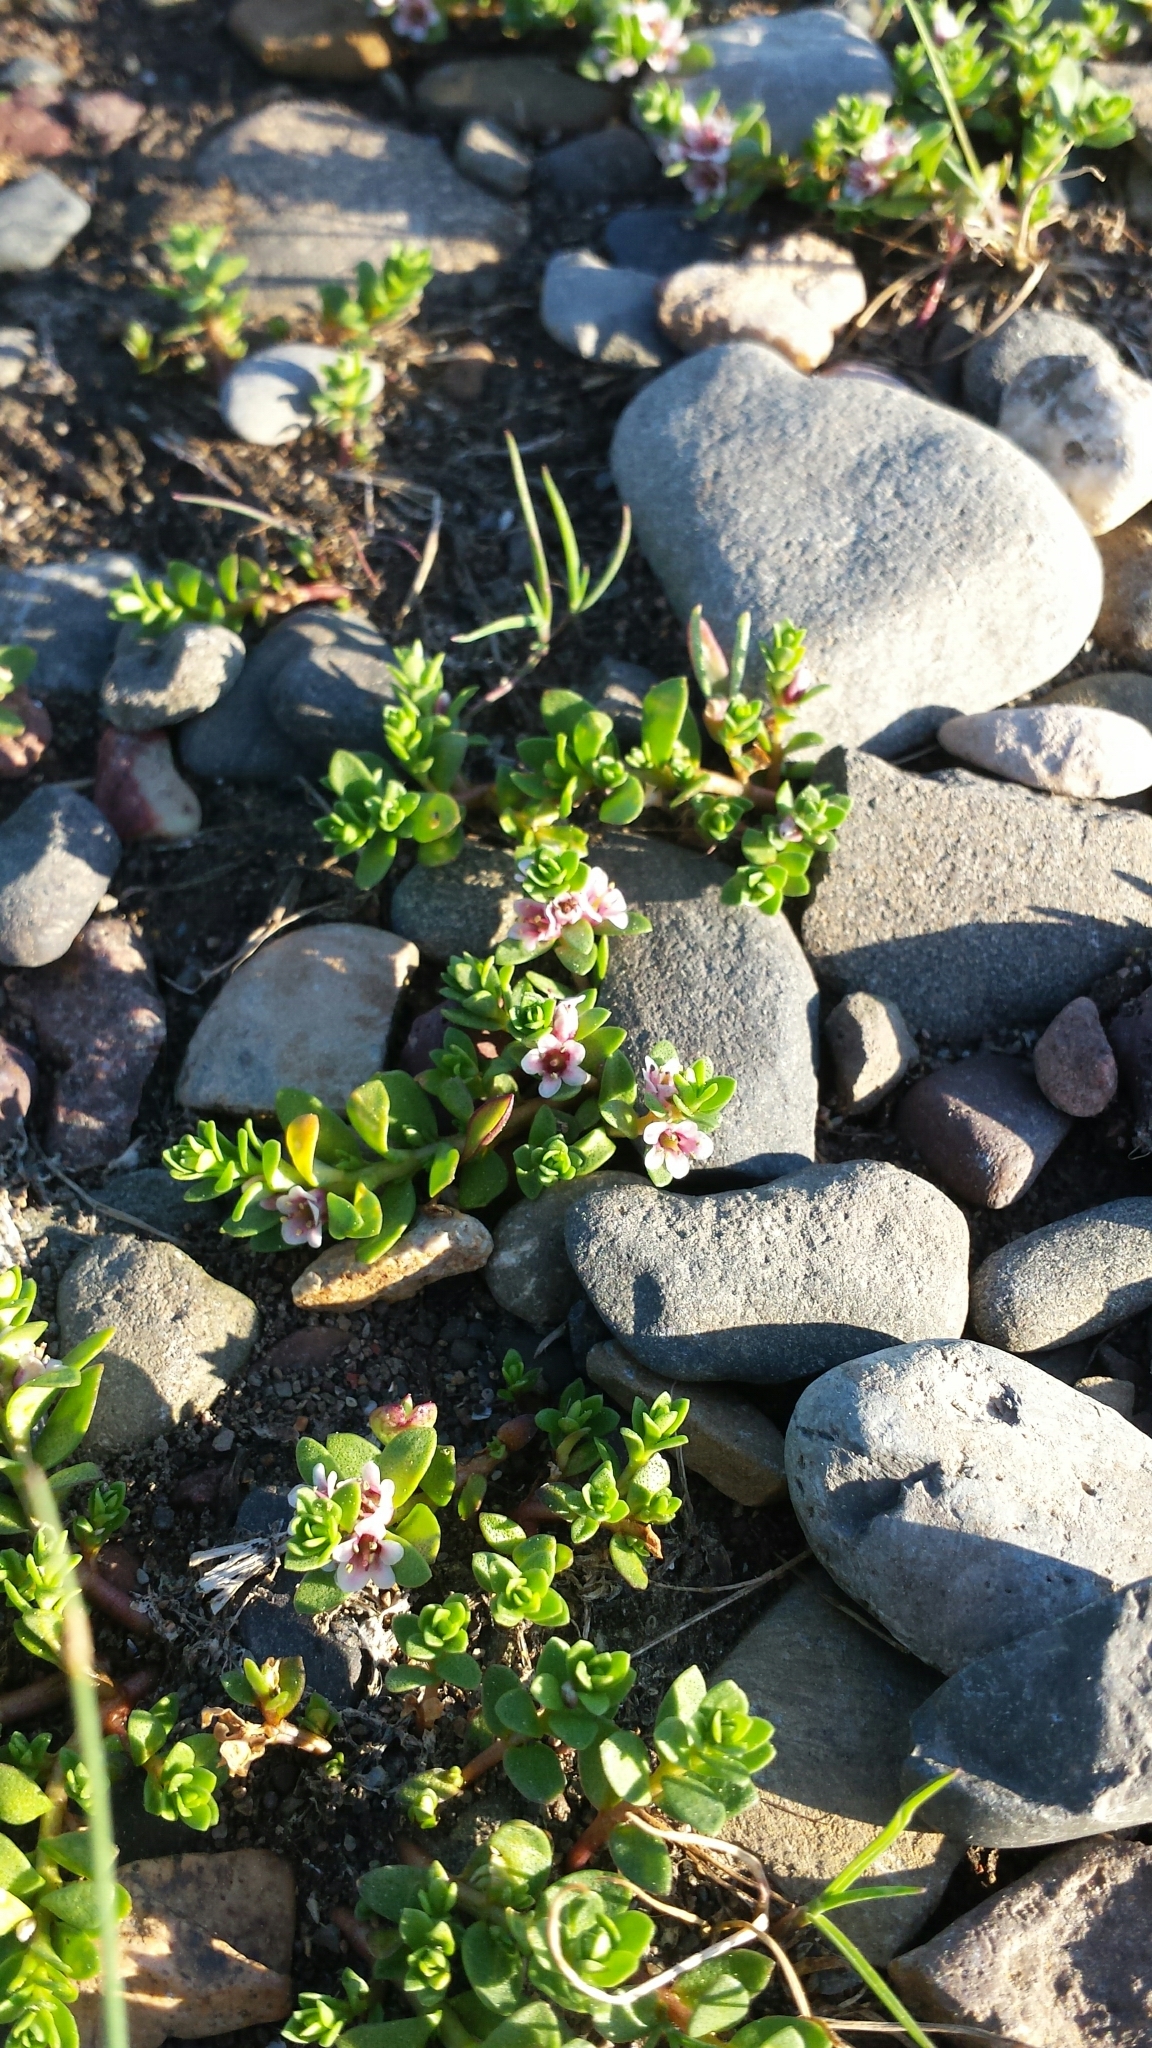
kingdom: Plantae
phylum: Tracheophyta
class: Magnoliopsida
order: Ericales
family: Primulaceae
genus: Lysimachia
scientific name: Lysimachia maritima
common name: Sea milkwort
